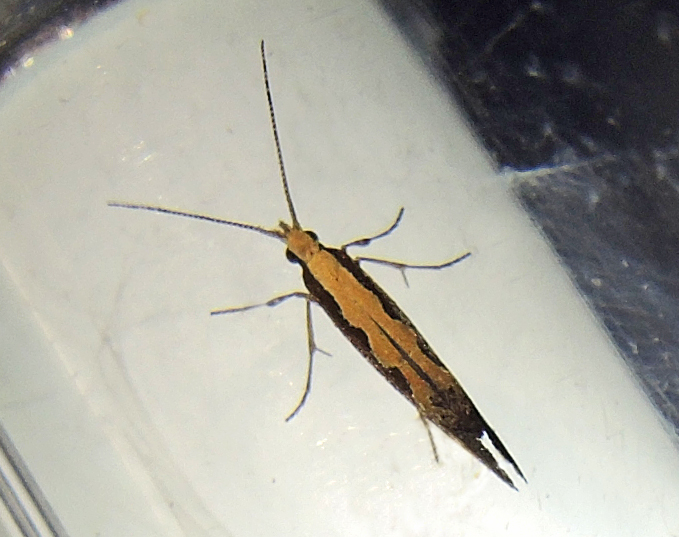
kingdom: Animalia
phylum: Arthropoda
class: Insecta
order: Lepidoptera
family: Plutellidae
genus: Plutella
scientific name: Plutella xylostella
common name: Diamond-back moth
